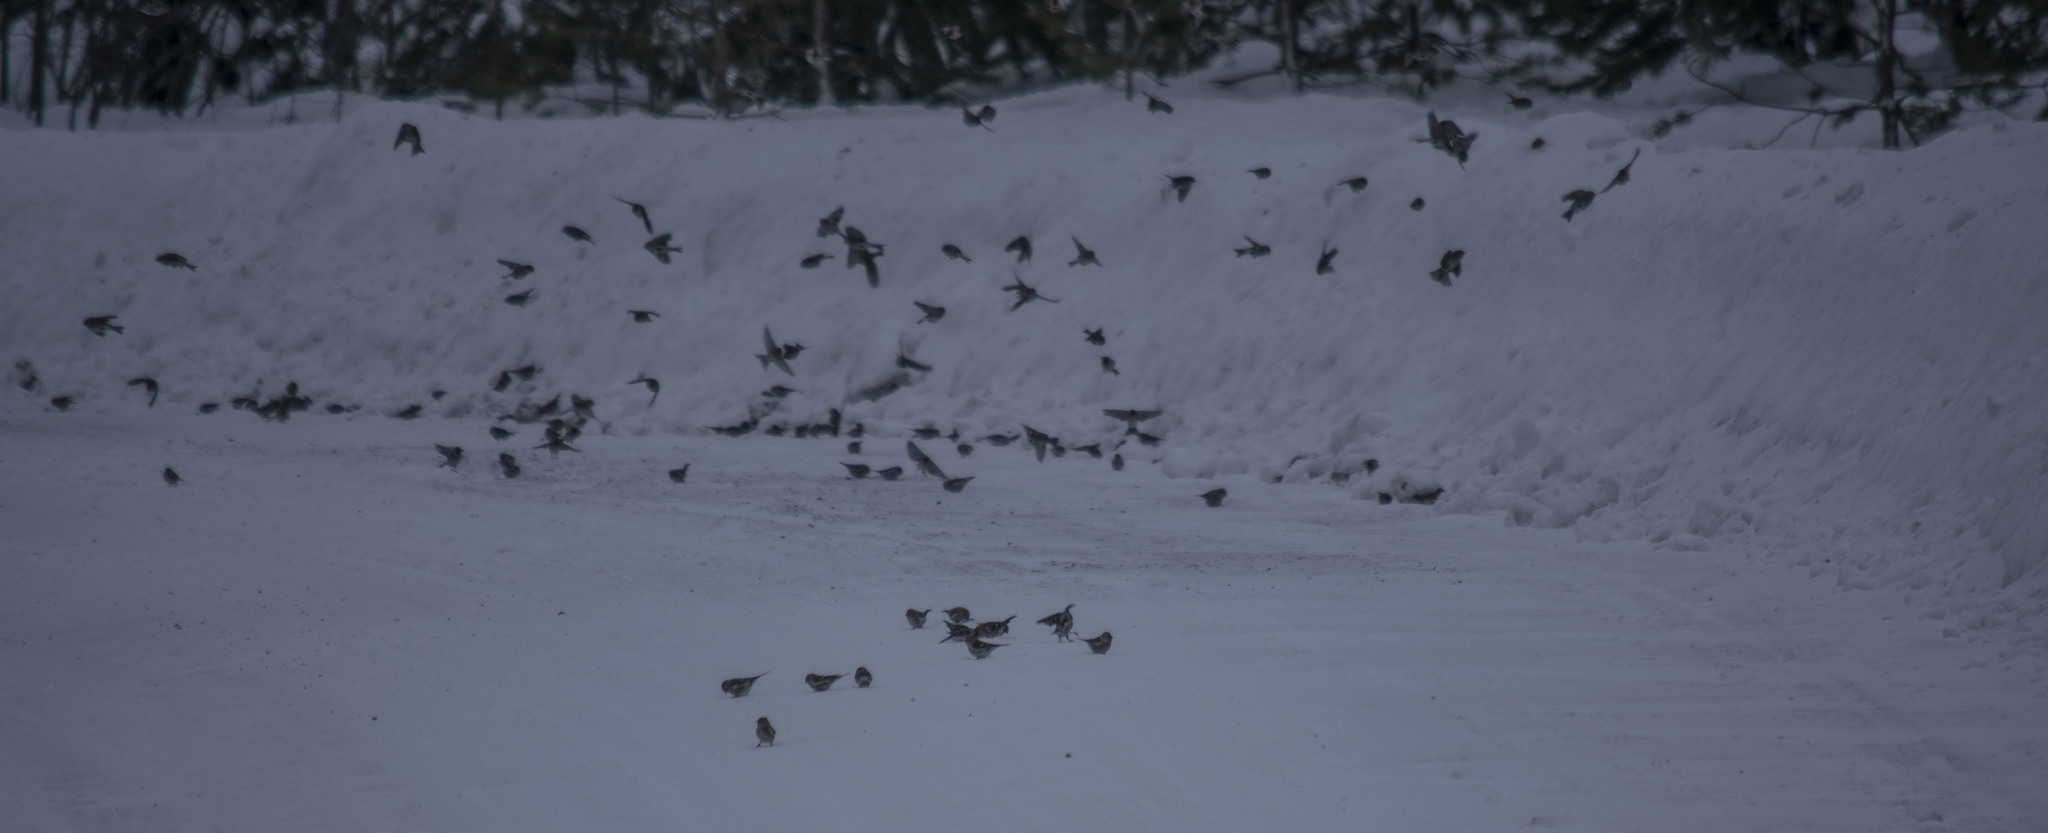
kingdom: Animalia
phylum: Chordata
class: Aves
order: Passeriformes
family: Fringillidae
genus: Acanthis
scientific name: Acanthis flammea
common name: Common redpoll
